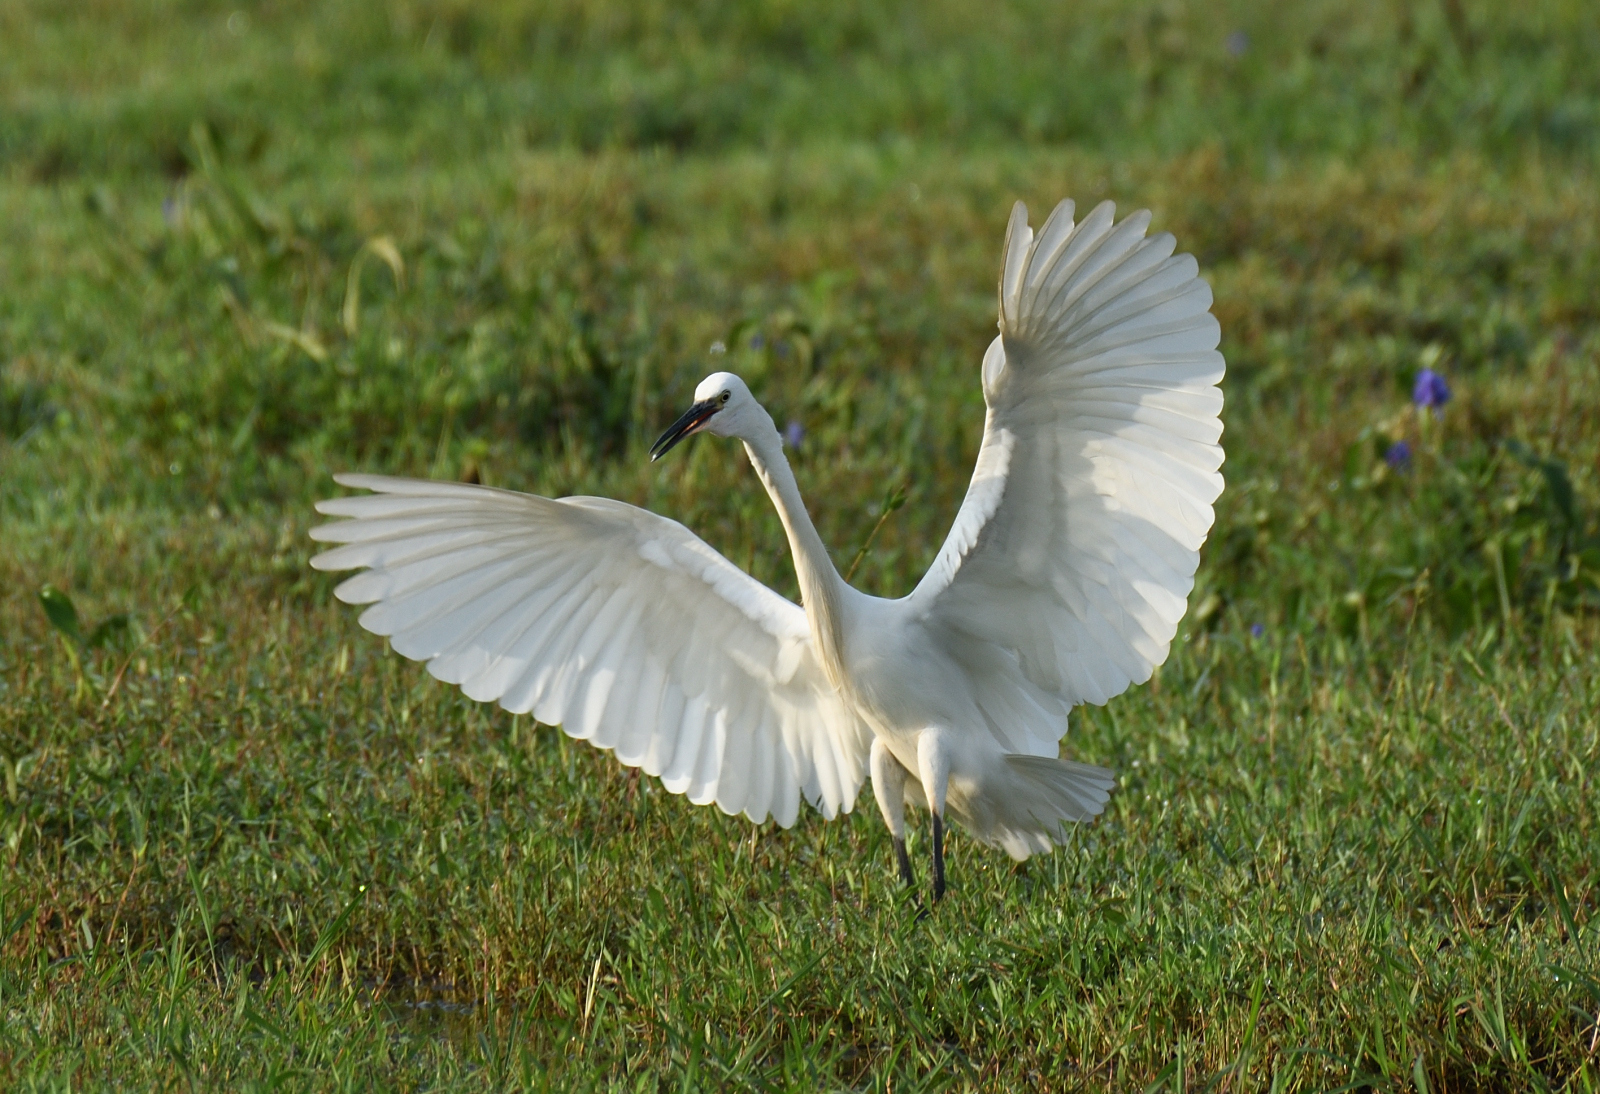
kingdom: Animalia
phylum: Chordata
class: Aves
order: Pelecaniformes
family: Ardeidae
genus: Egretta
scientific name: Egretta garzetta
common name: Little egret
